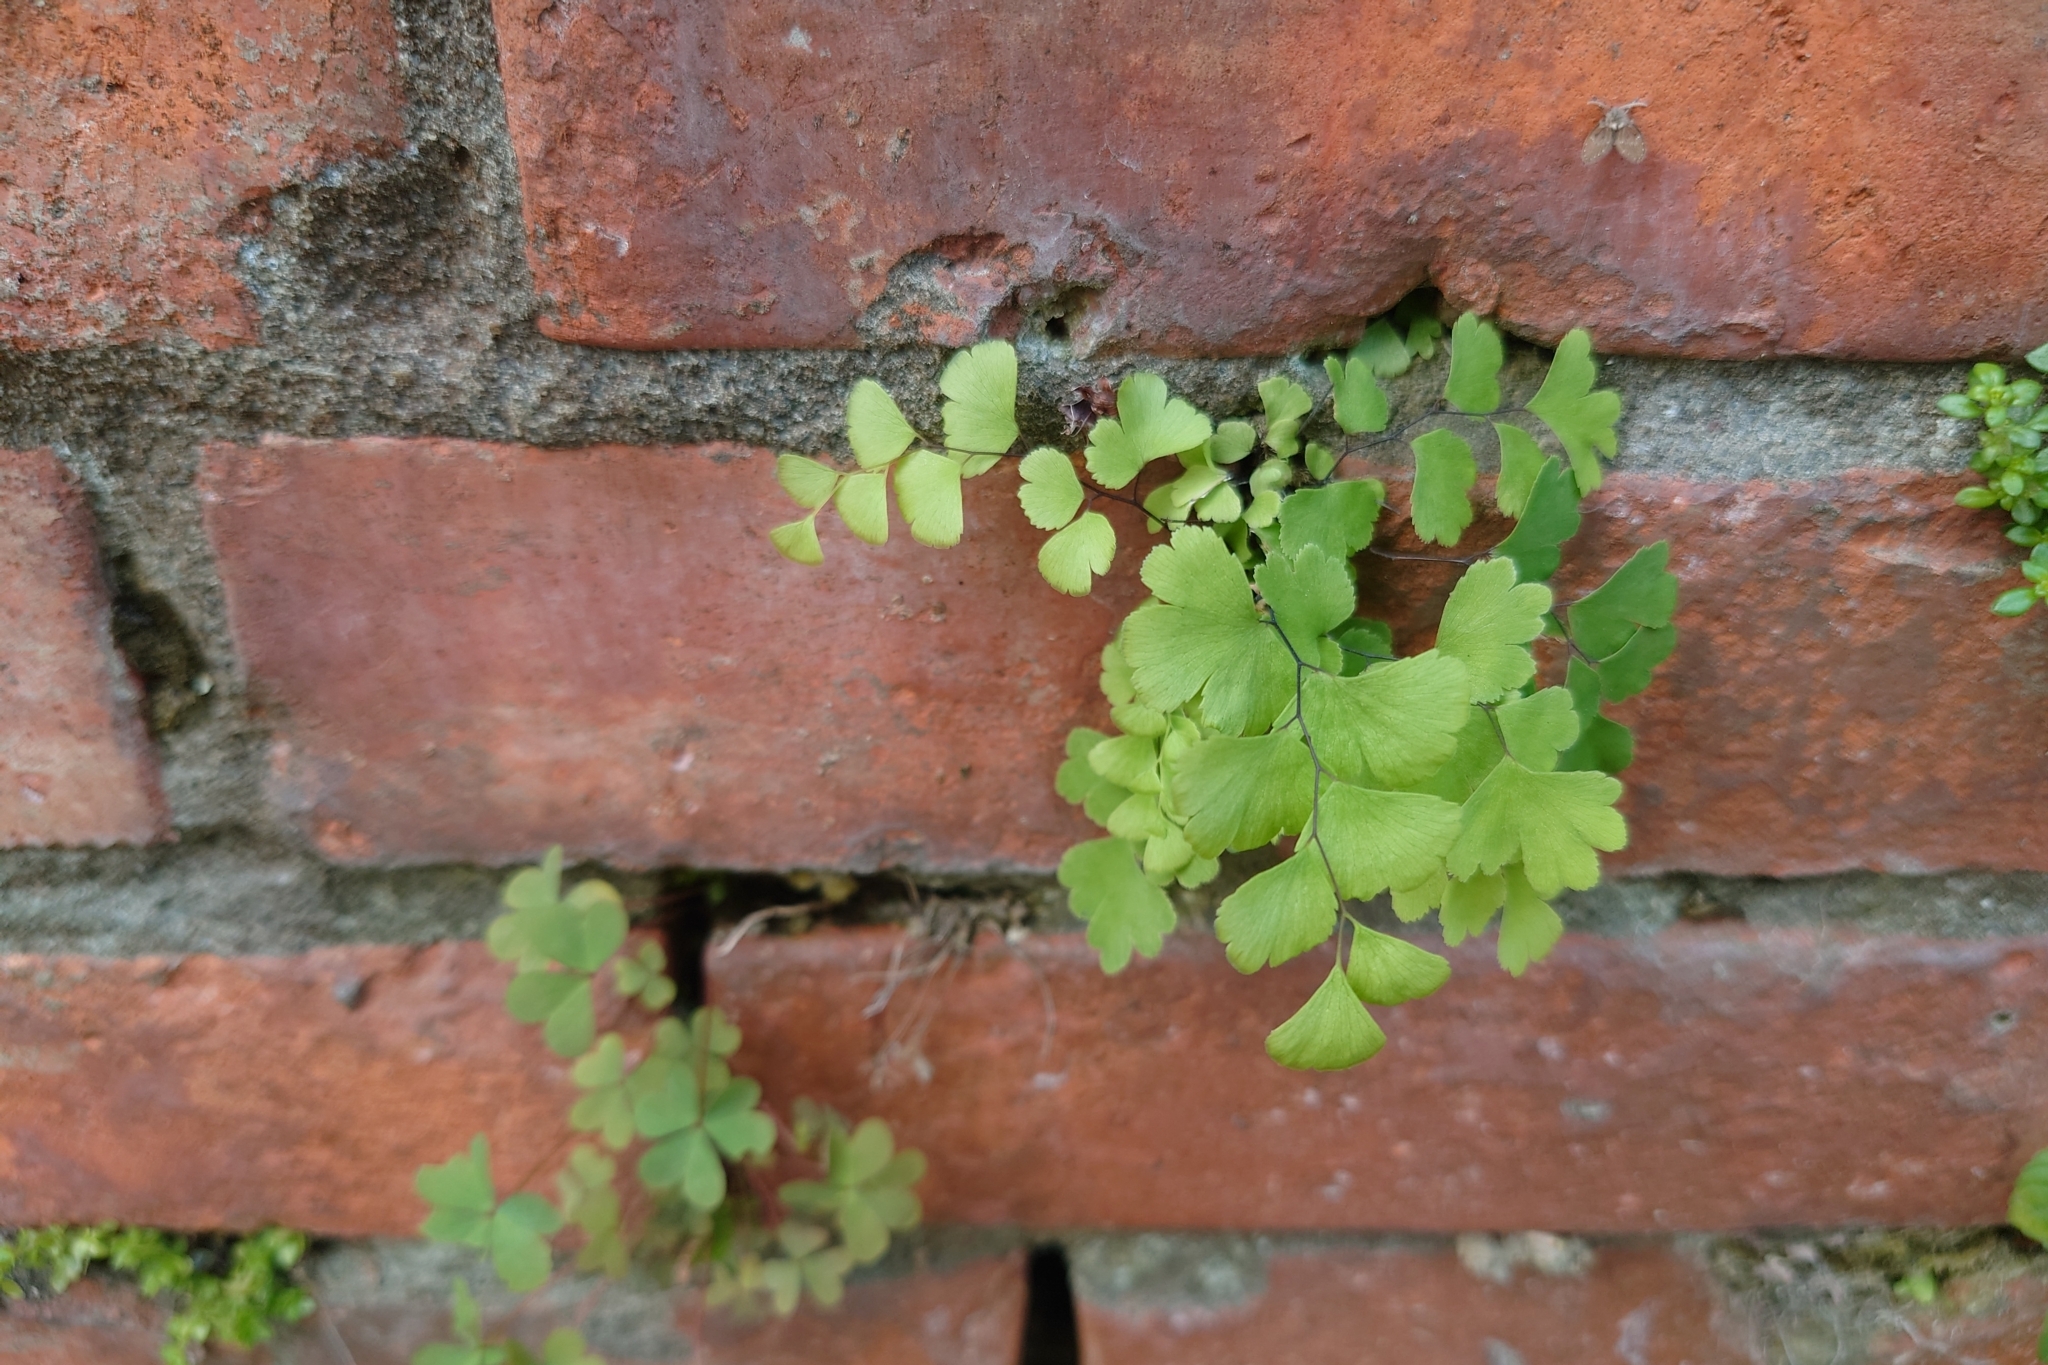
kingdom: Plantae
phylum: Tracheophyta
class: Polypodiopsida
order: Polypodiales
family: Pteridaceae
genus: Adiantum
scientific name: Adiantum capillus-veneris
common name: Maidenhair fern
